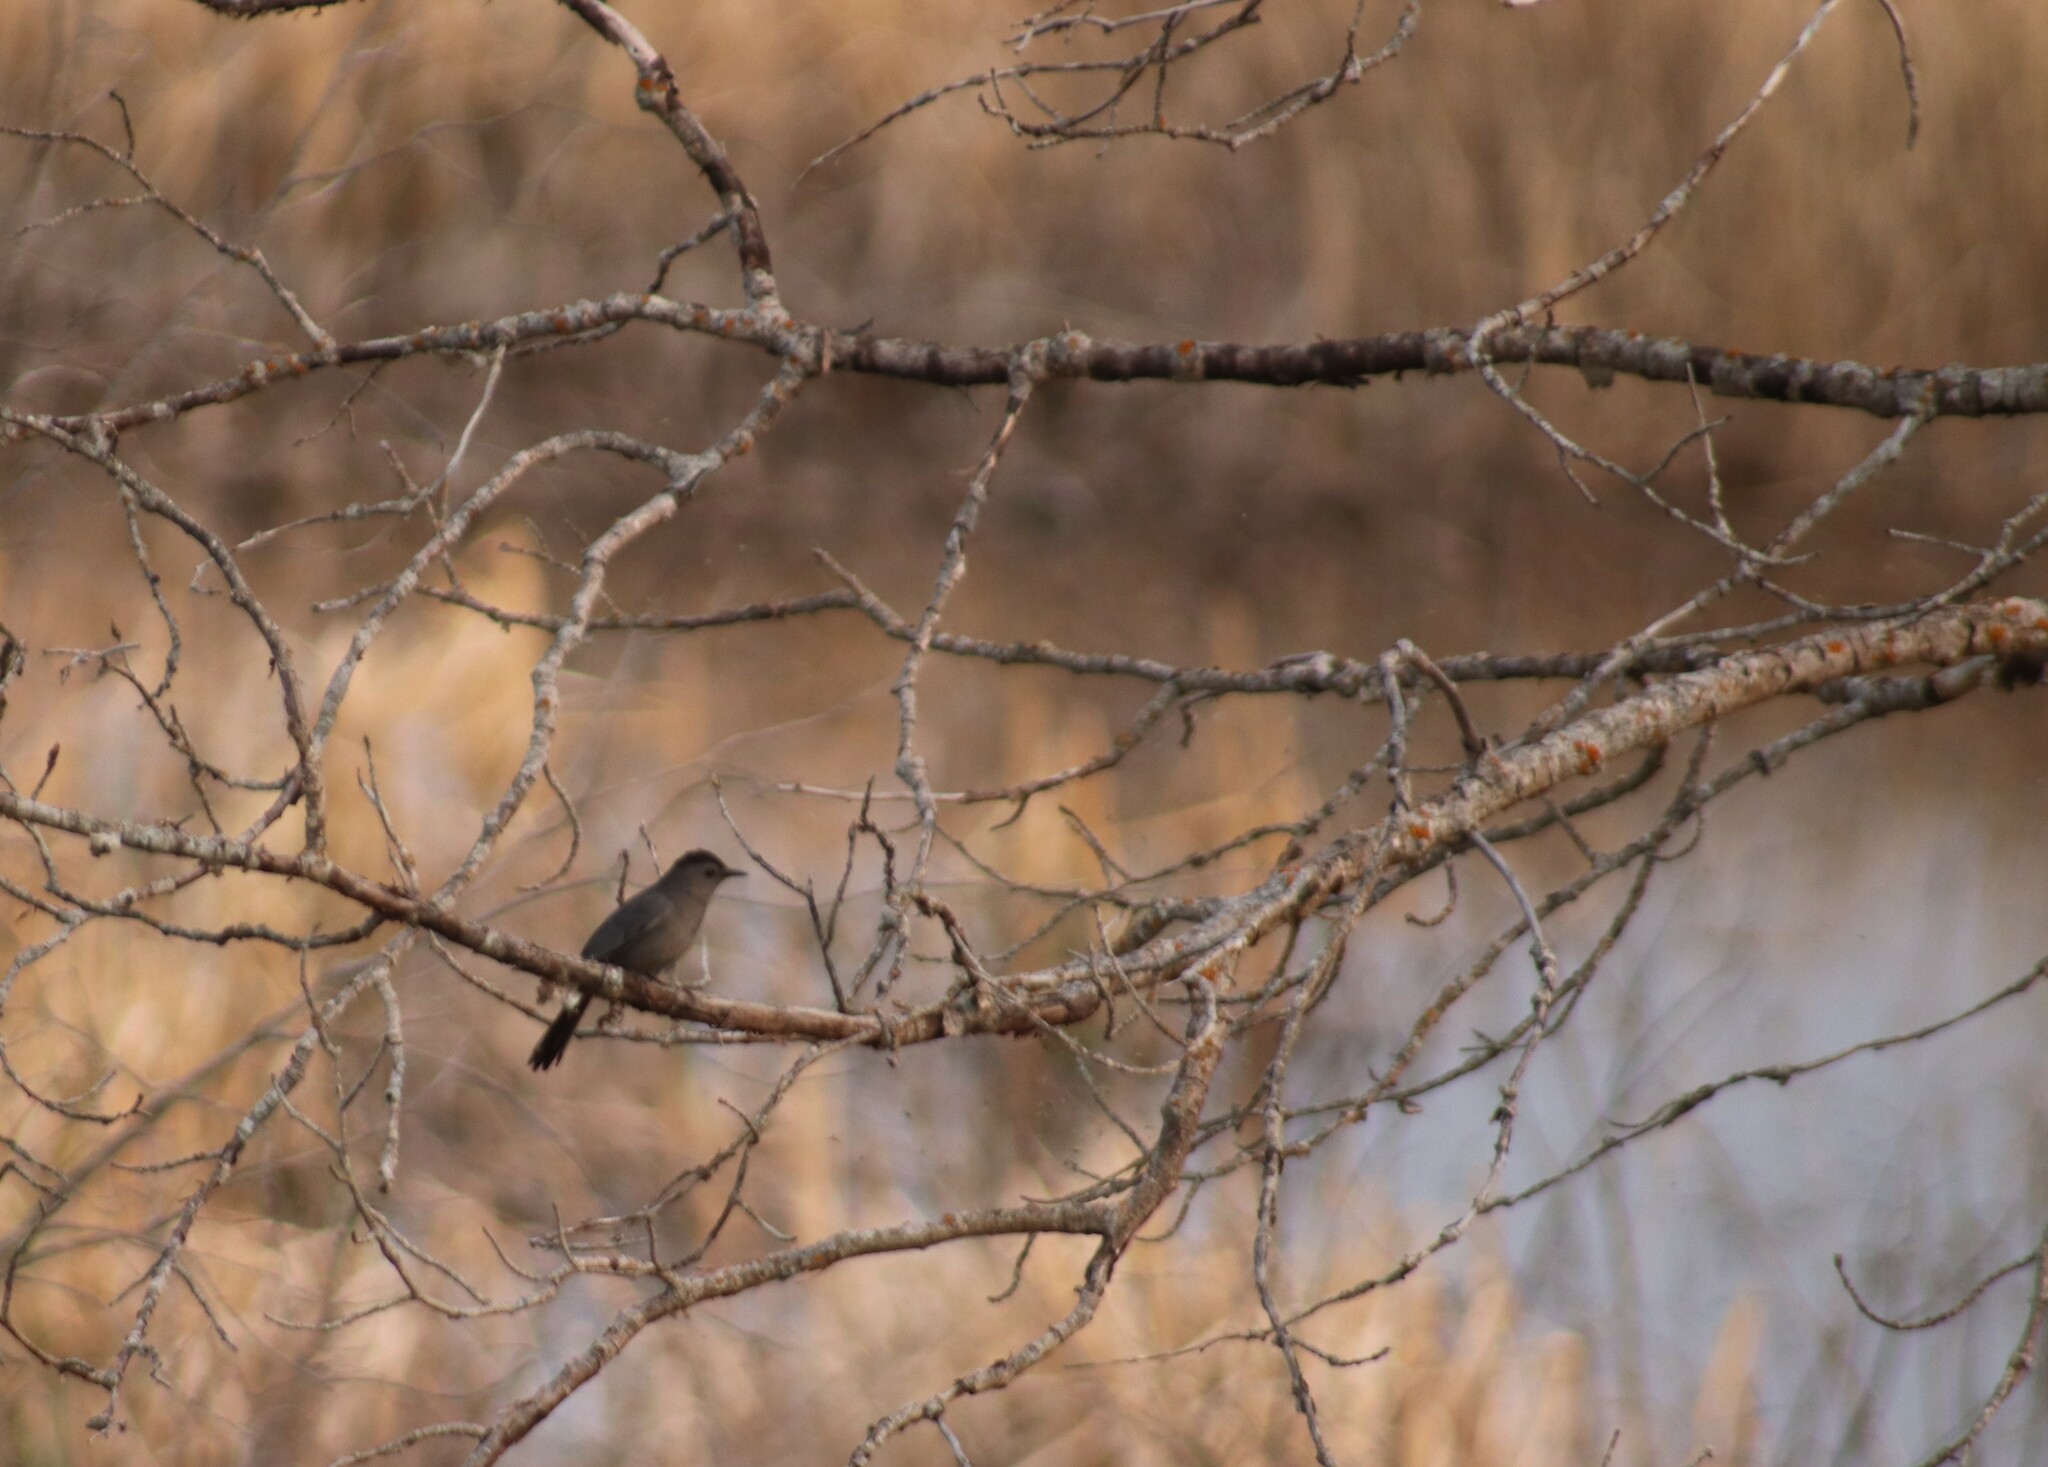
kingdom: Animalia
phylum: Chordata
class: Aves
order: Passeriformes
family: Mimidae
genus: Dumetella
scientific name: Dumetella carolinensis
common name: Gray catbird
